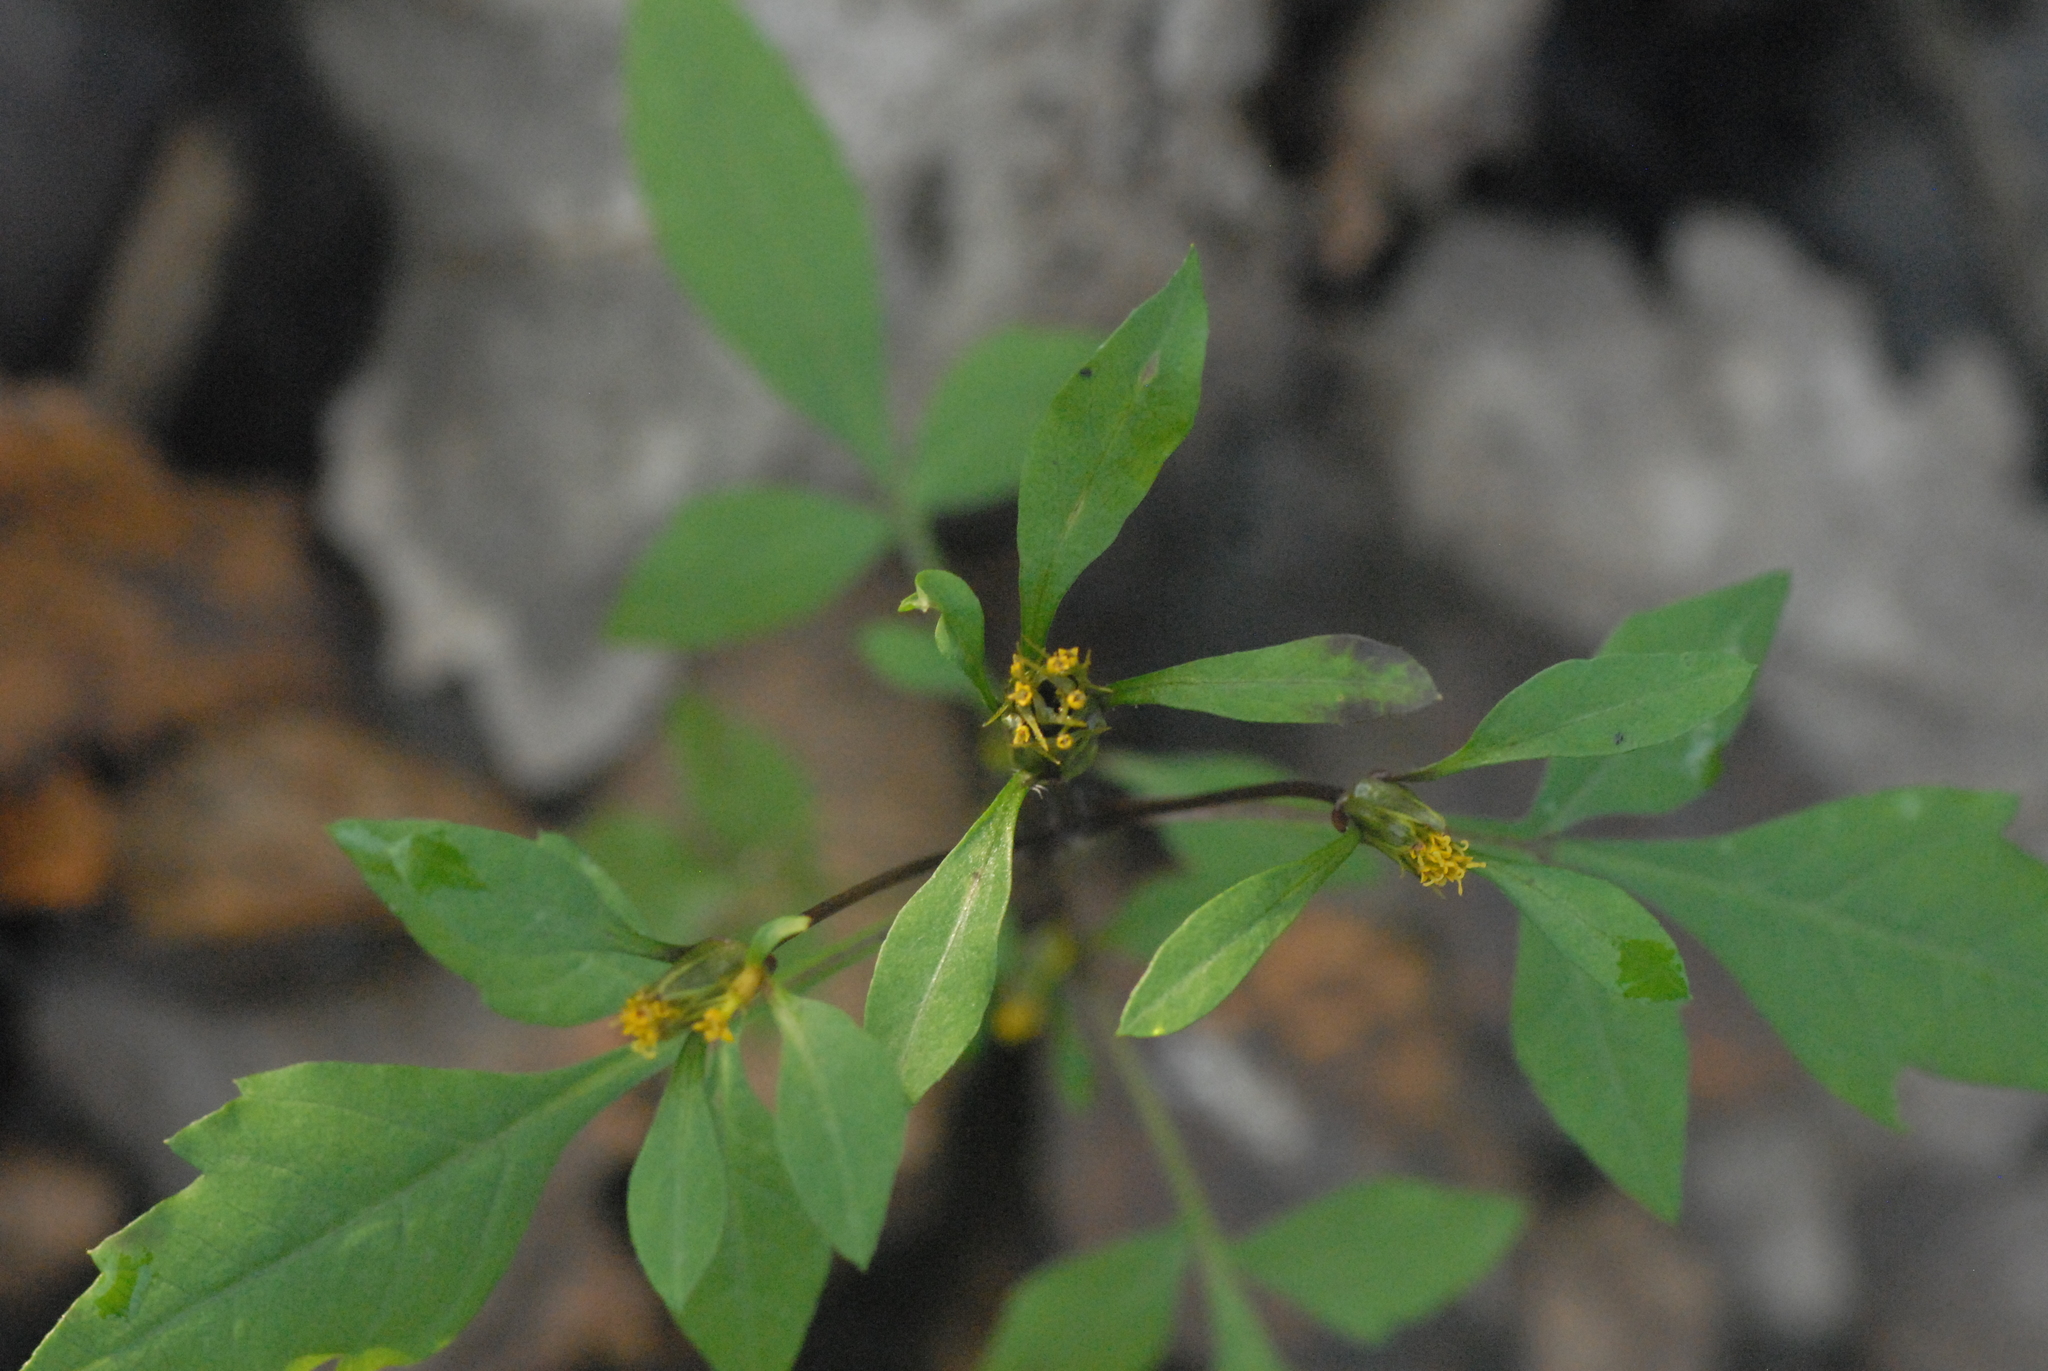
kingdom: Plantae
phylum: Tracheophyta
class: Magnoliopsida
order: Asterales
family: Asteraceae
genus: Bidens
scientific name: Bidens frondosa
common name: Beggarticks
